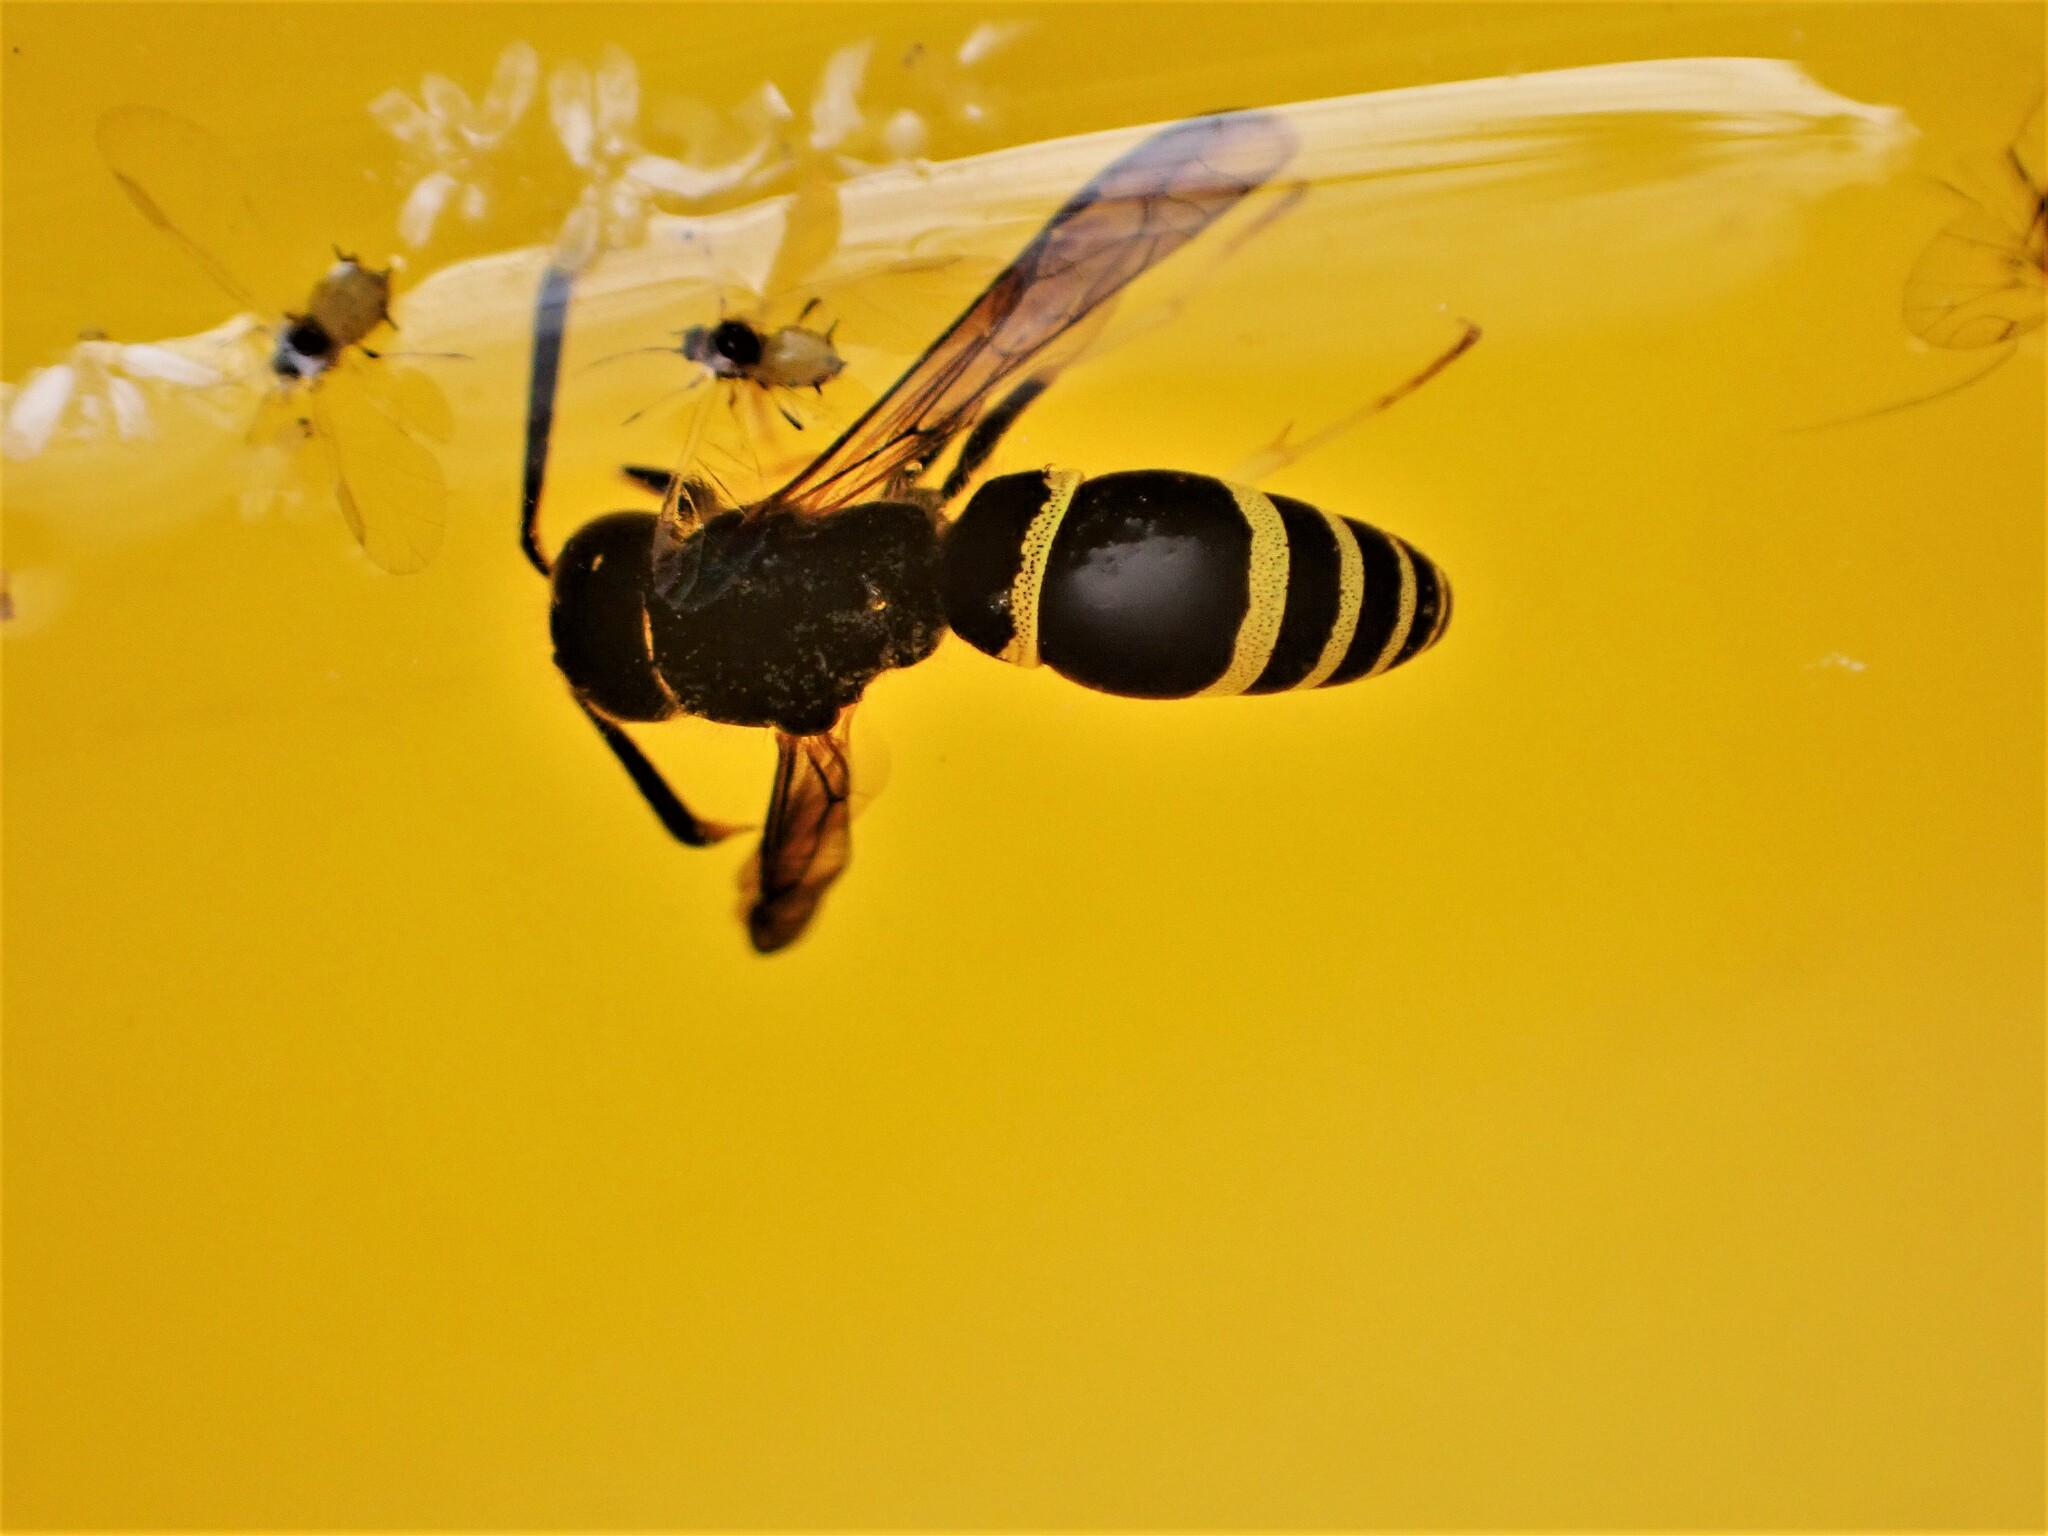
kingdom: Animalia
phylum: Arthropoda
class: Insecta
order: Hymenoptera
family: Vespidae
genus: Ancistrocerus
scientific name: Ancistrocerus gazella
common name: European tube wasp
